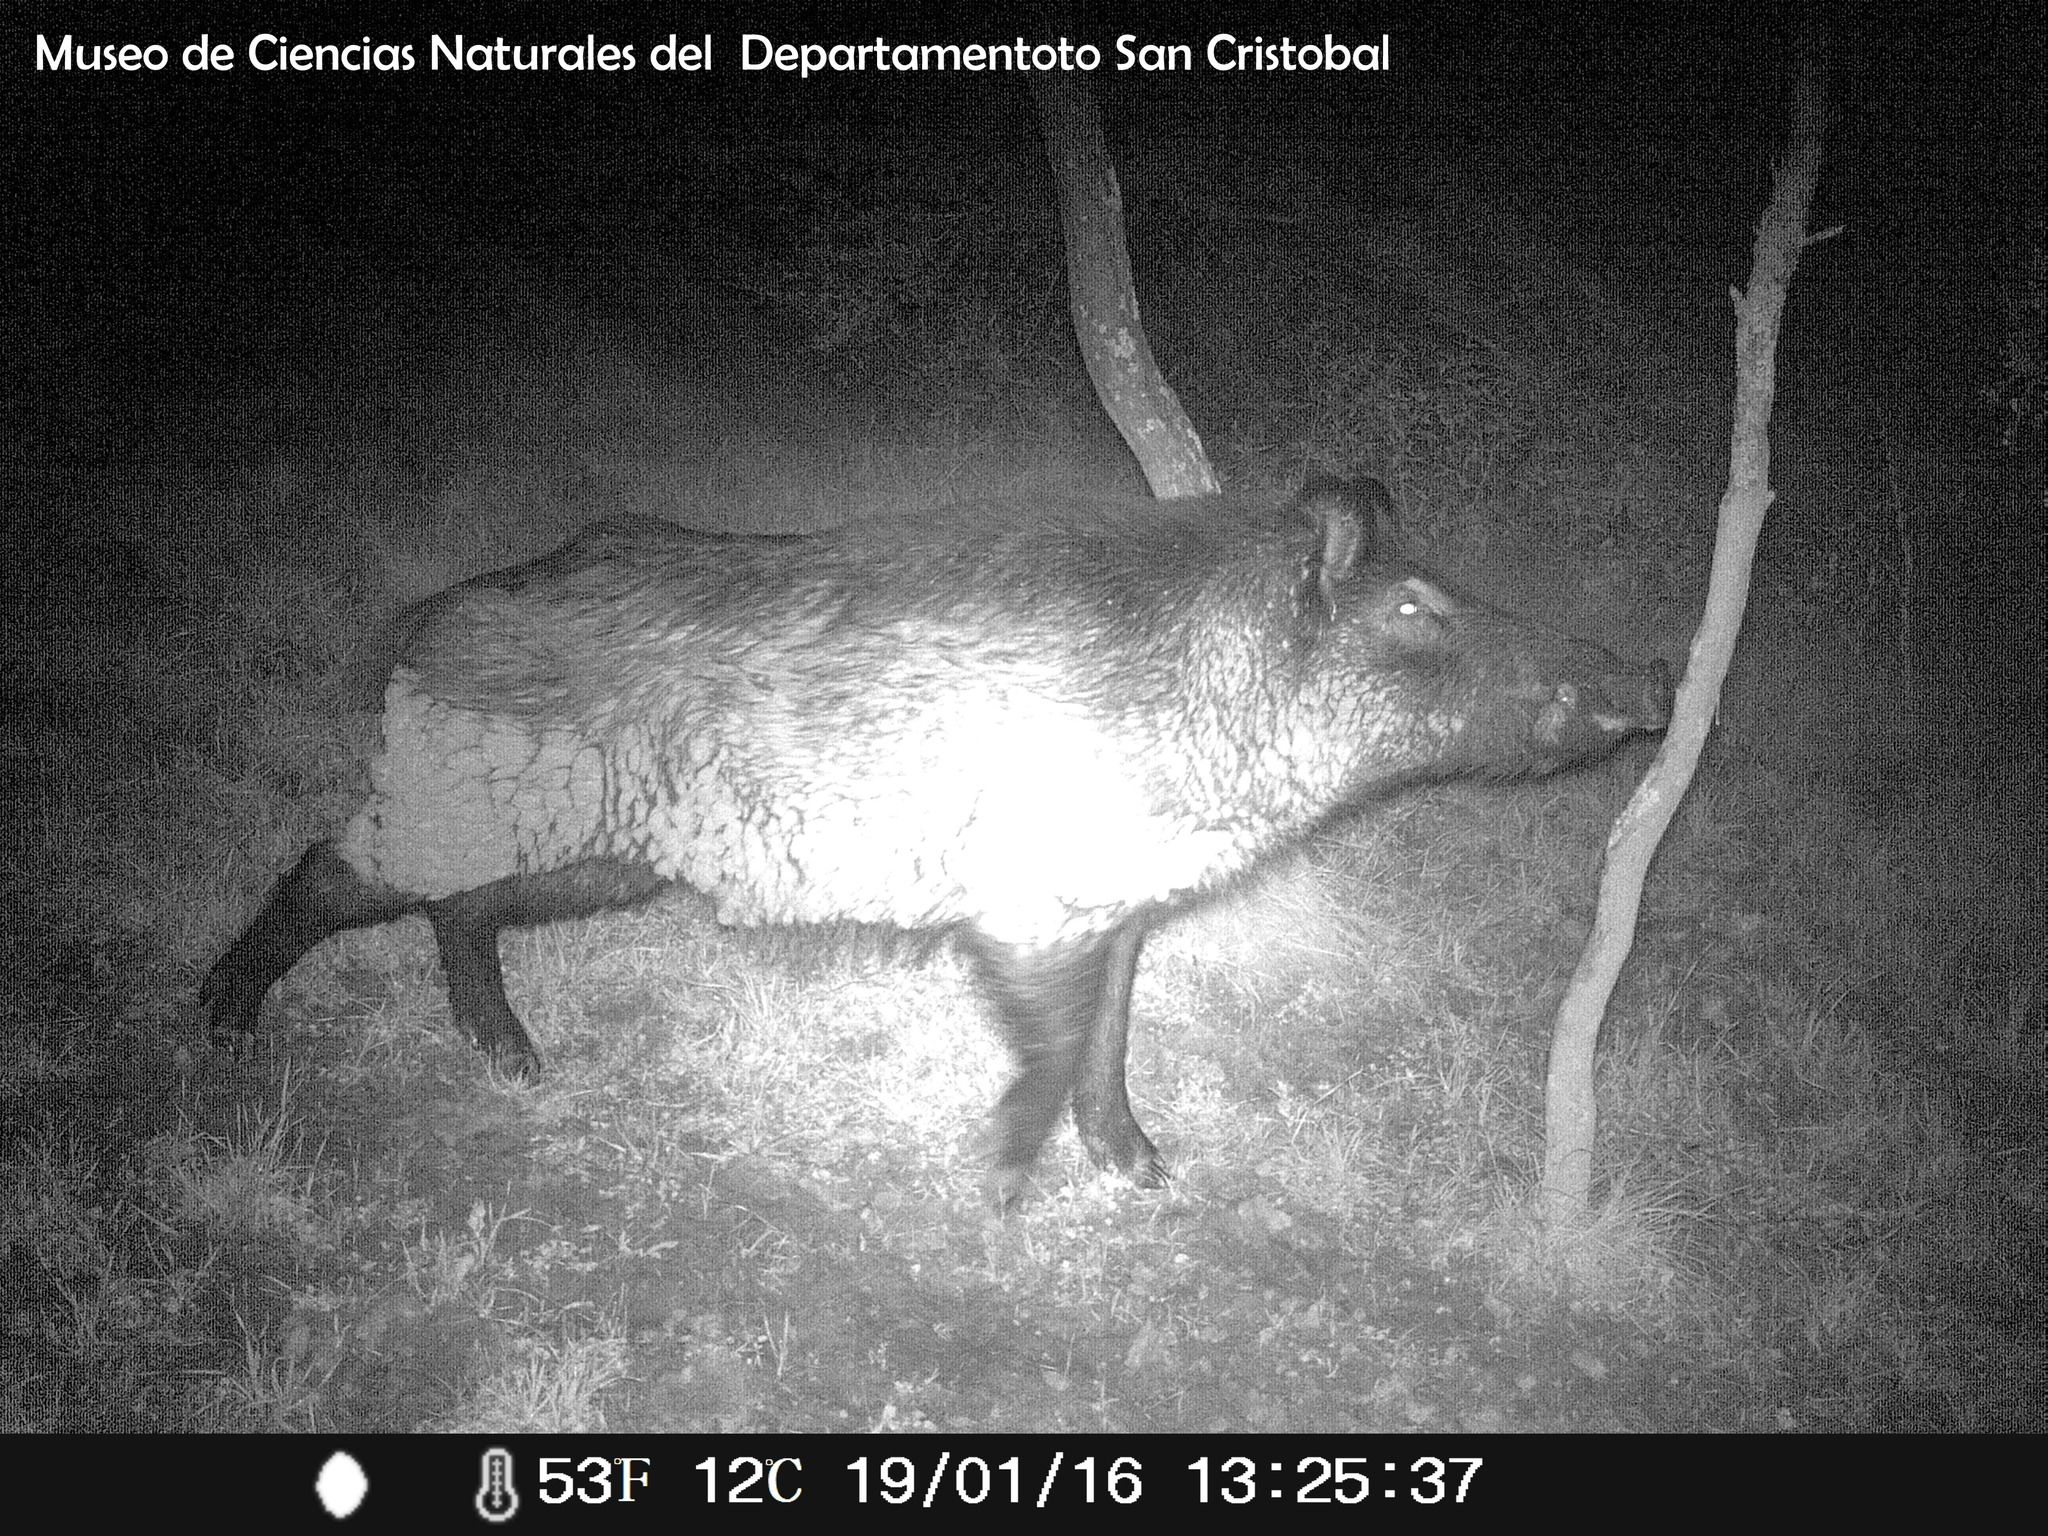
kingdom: Animalia
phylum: Chordata
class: Mammalia
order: Artiodactyla
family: Suidae
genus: Sus
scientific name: Sus scrofa
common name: Wild boar
